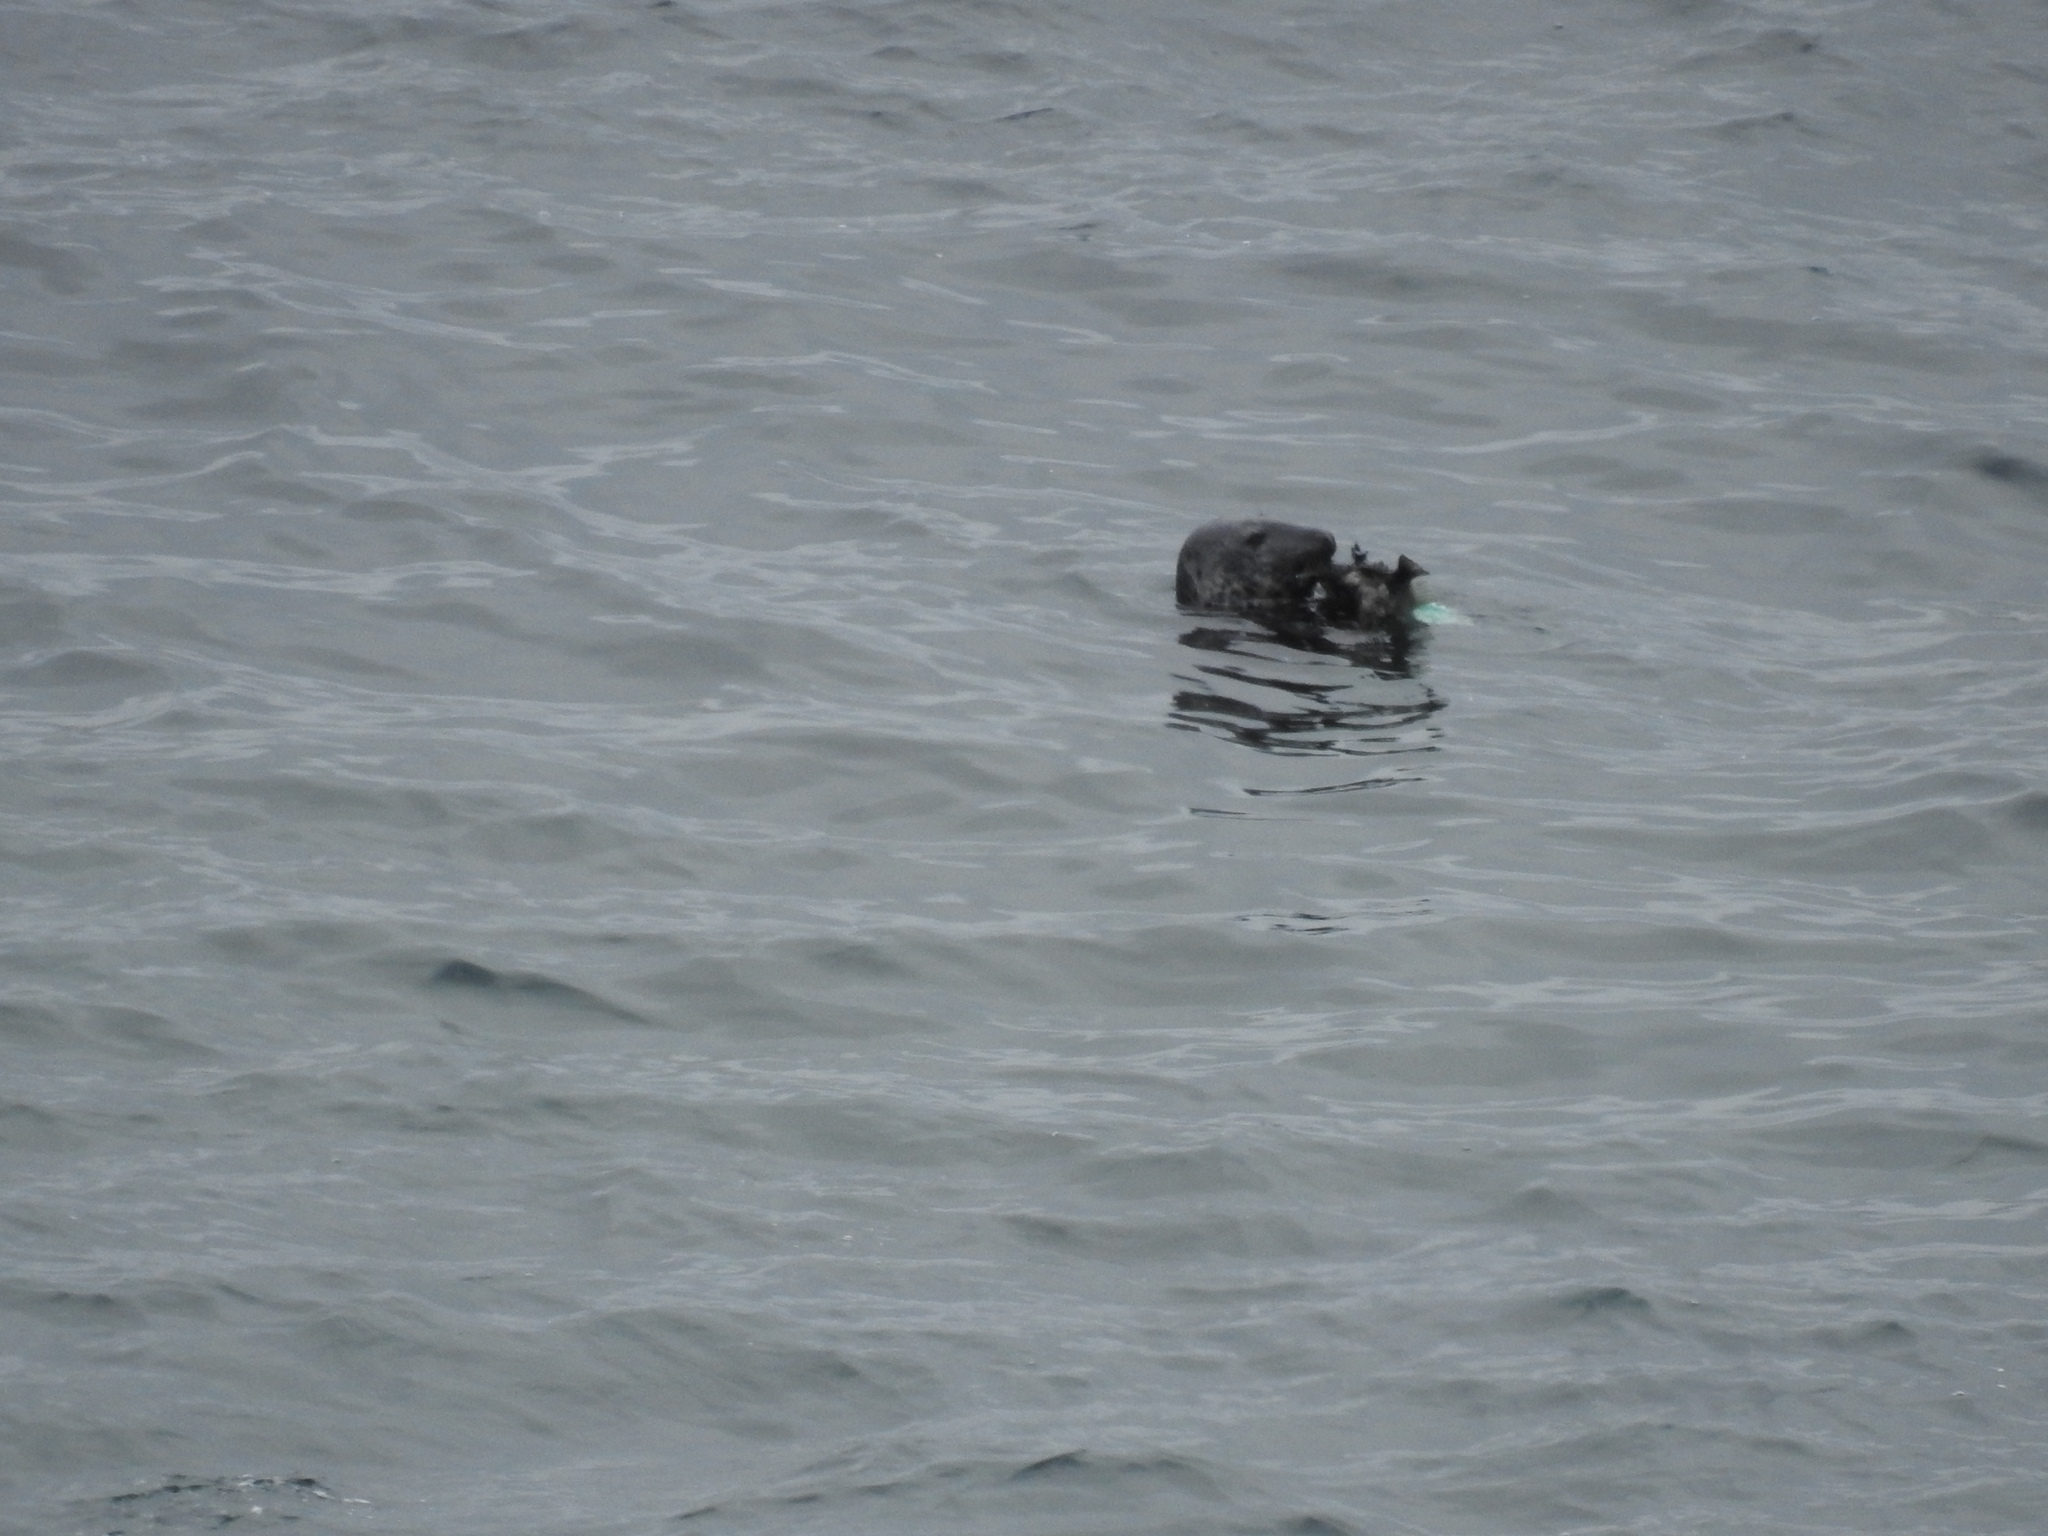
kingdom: Animalia
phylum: Chordata
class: Mammalia
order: Carnivora
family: Phocidae
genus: Halichoerus
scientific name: Halichoerus grypus
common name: Grey seal
